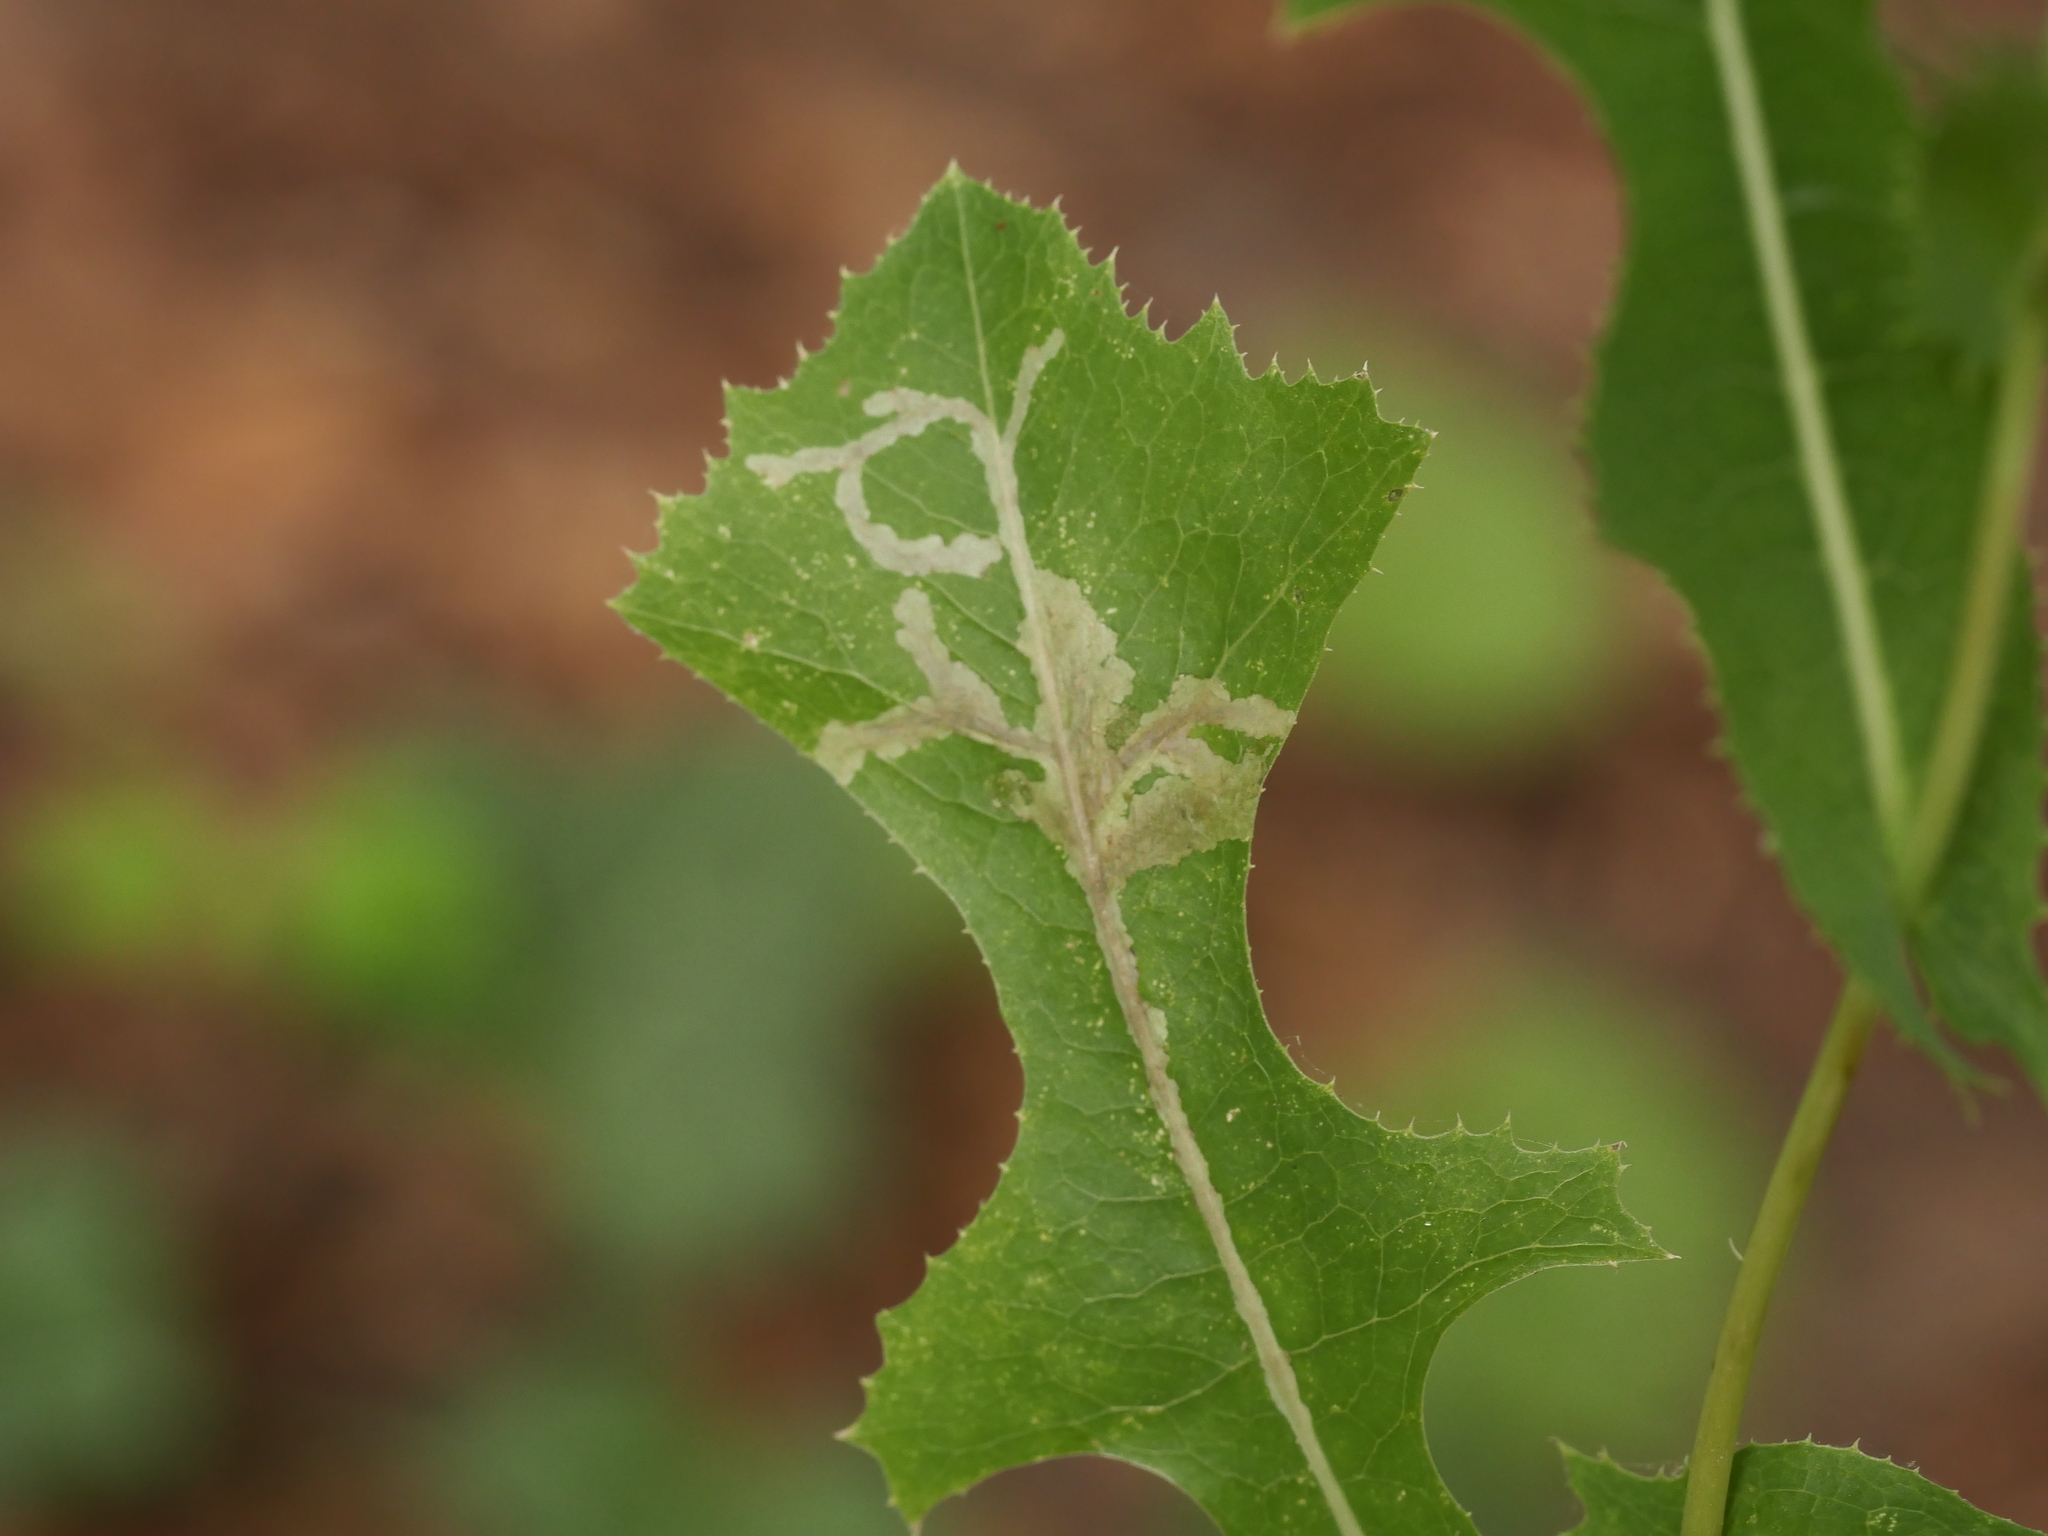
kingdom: Animalia
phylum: Arthropoda
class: Insecta
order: Diptera
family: Agromyzidae
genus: Liriomyza
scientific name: Liriomyza strigata
